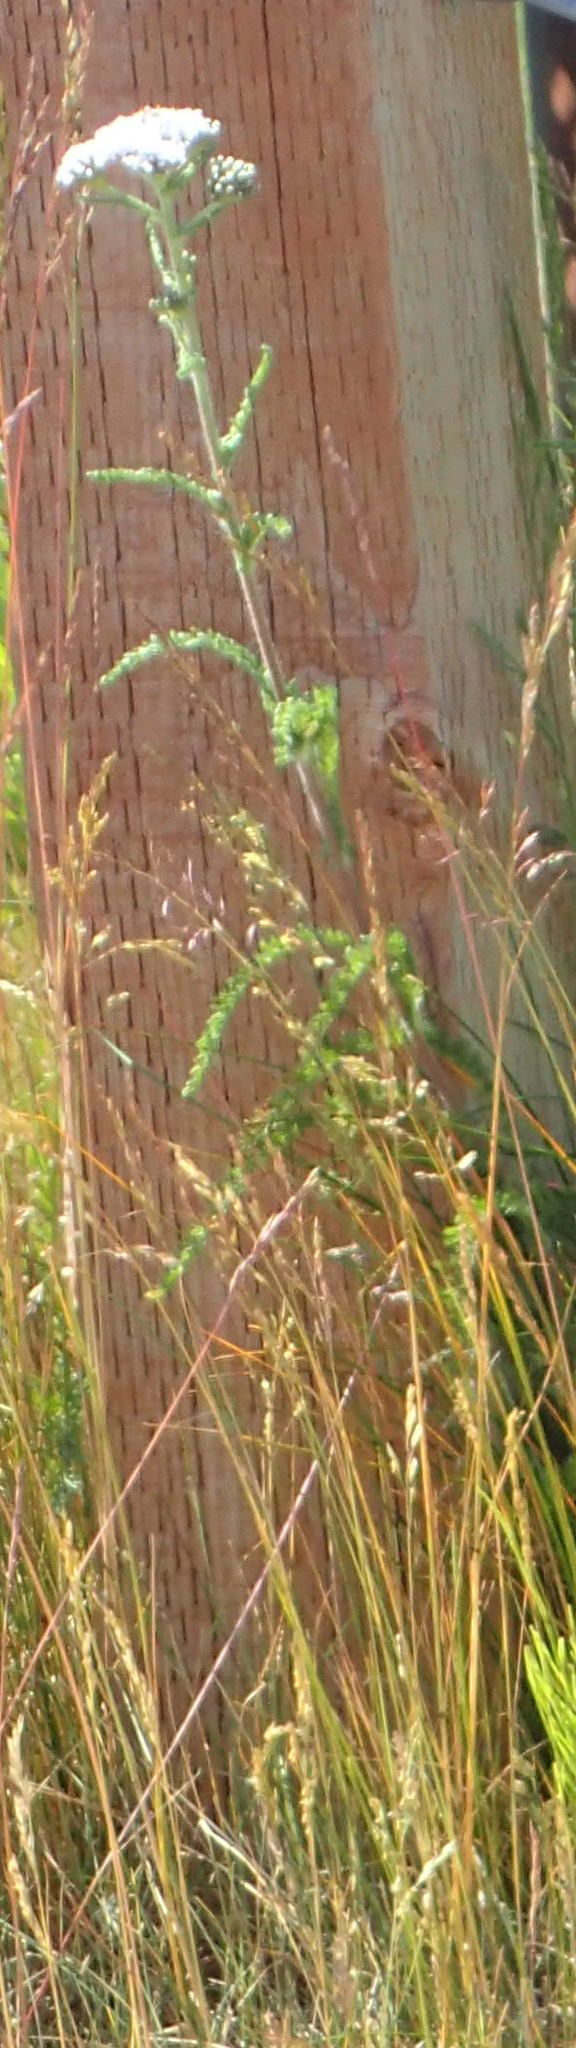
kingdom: Plantae
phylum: Tracheophyta
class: Magnoliopsida
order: Asterales
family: Asteraceae
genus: Achillea
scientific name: Achillea millefolium
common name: Yarrow
